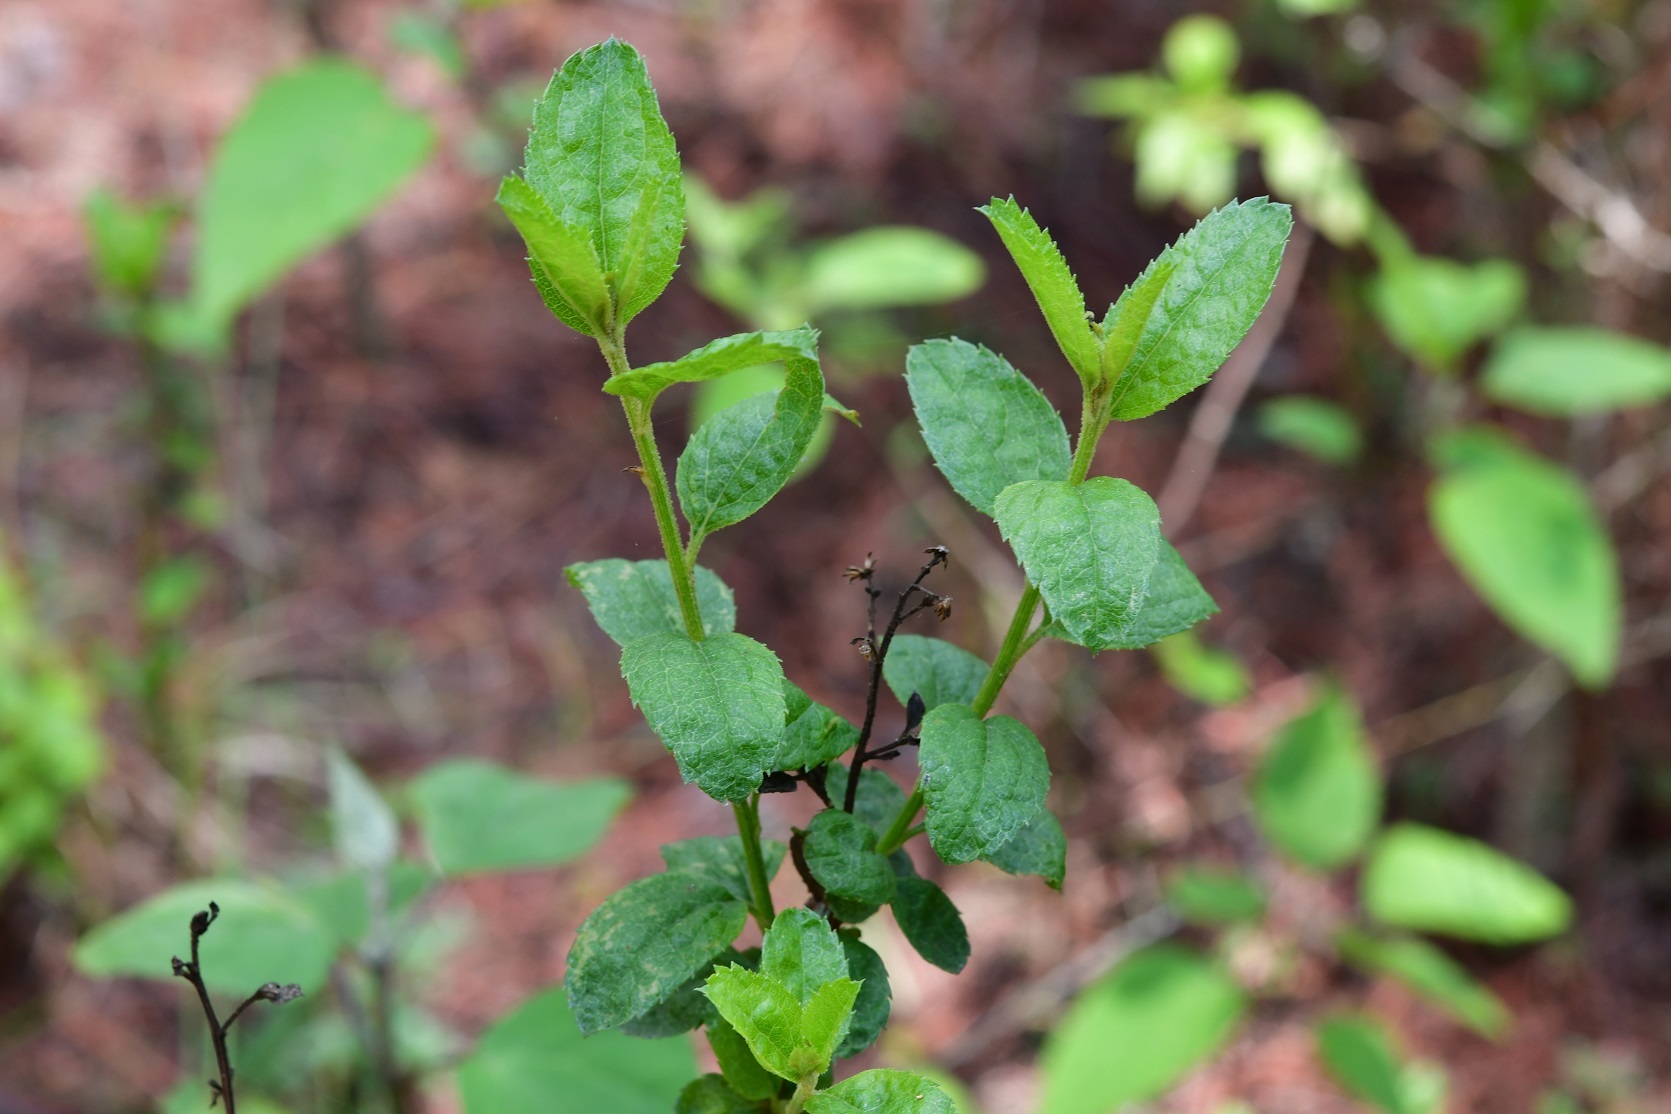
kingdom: Plantae
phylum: Tracheophyta
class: Magnoliopsida
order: Asterales
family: Asteraceae
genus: Archibaccharis
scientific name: Archibaccharis serratifolia
